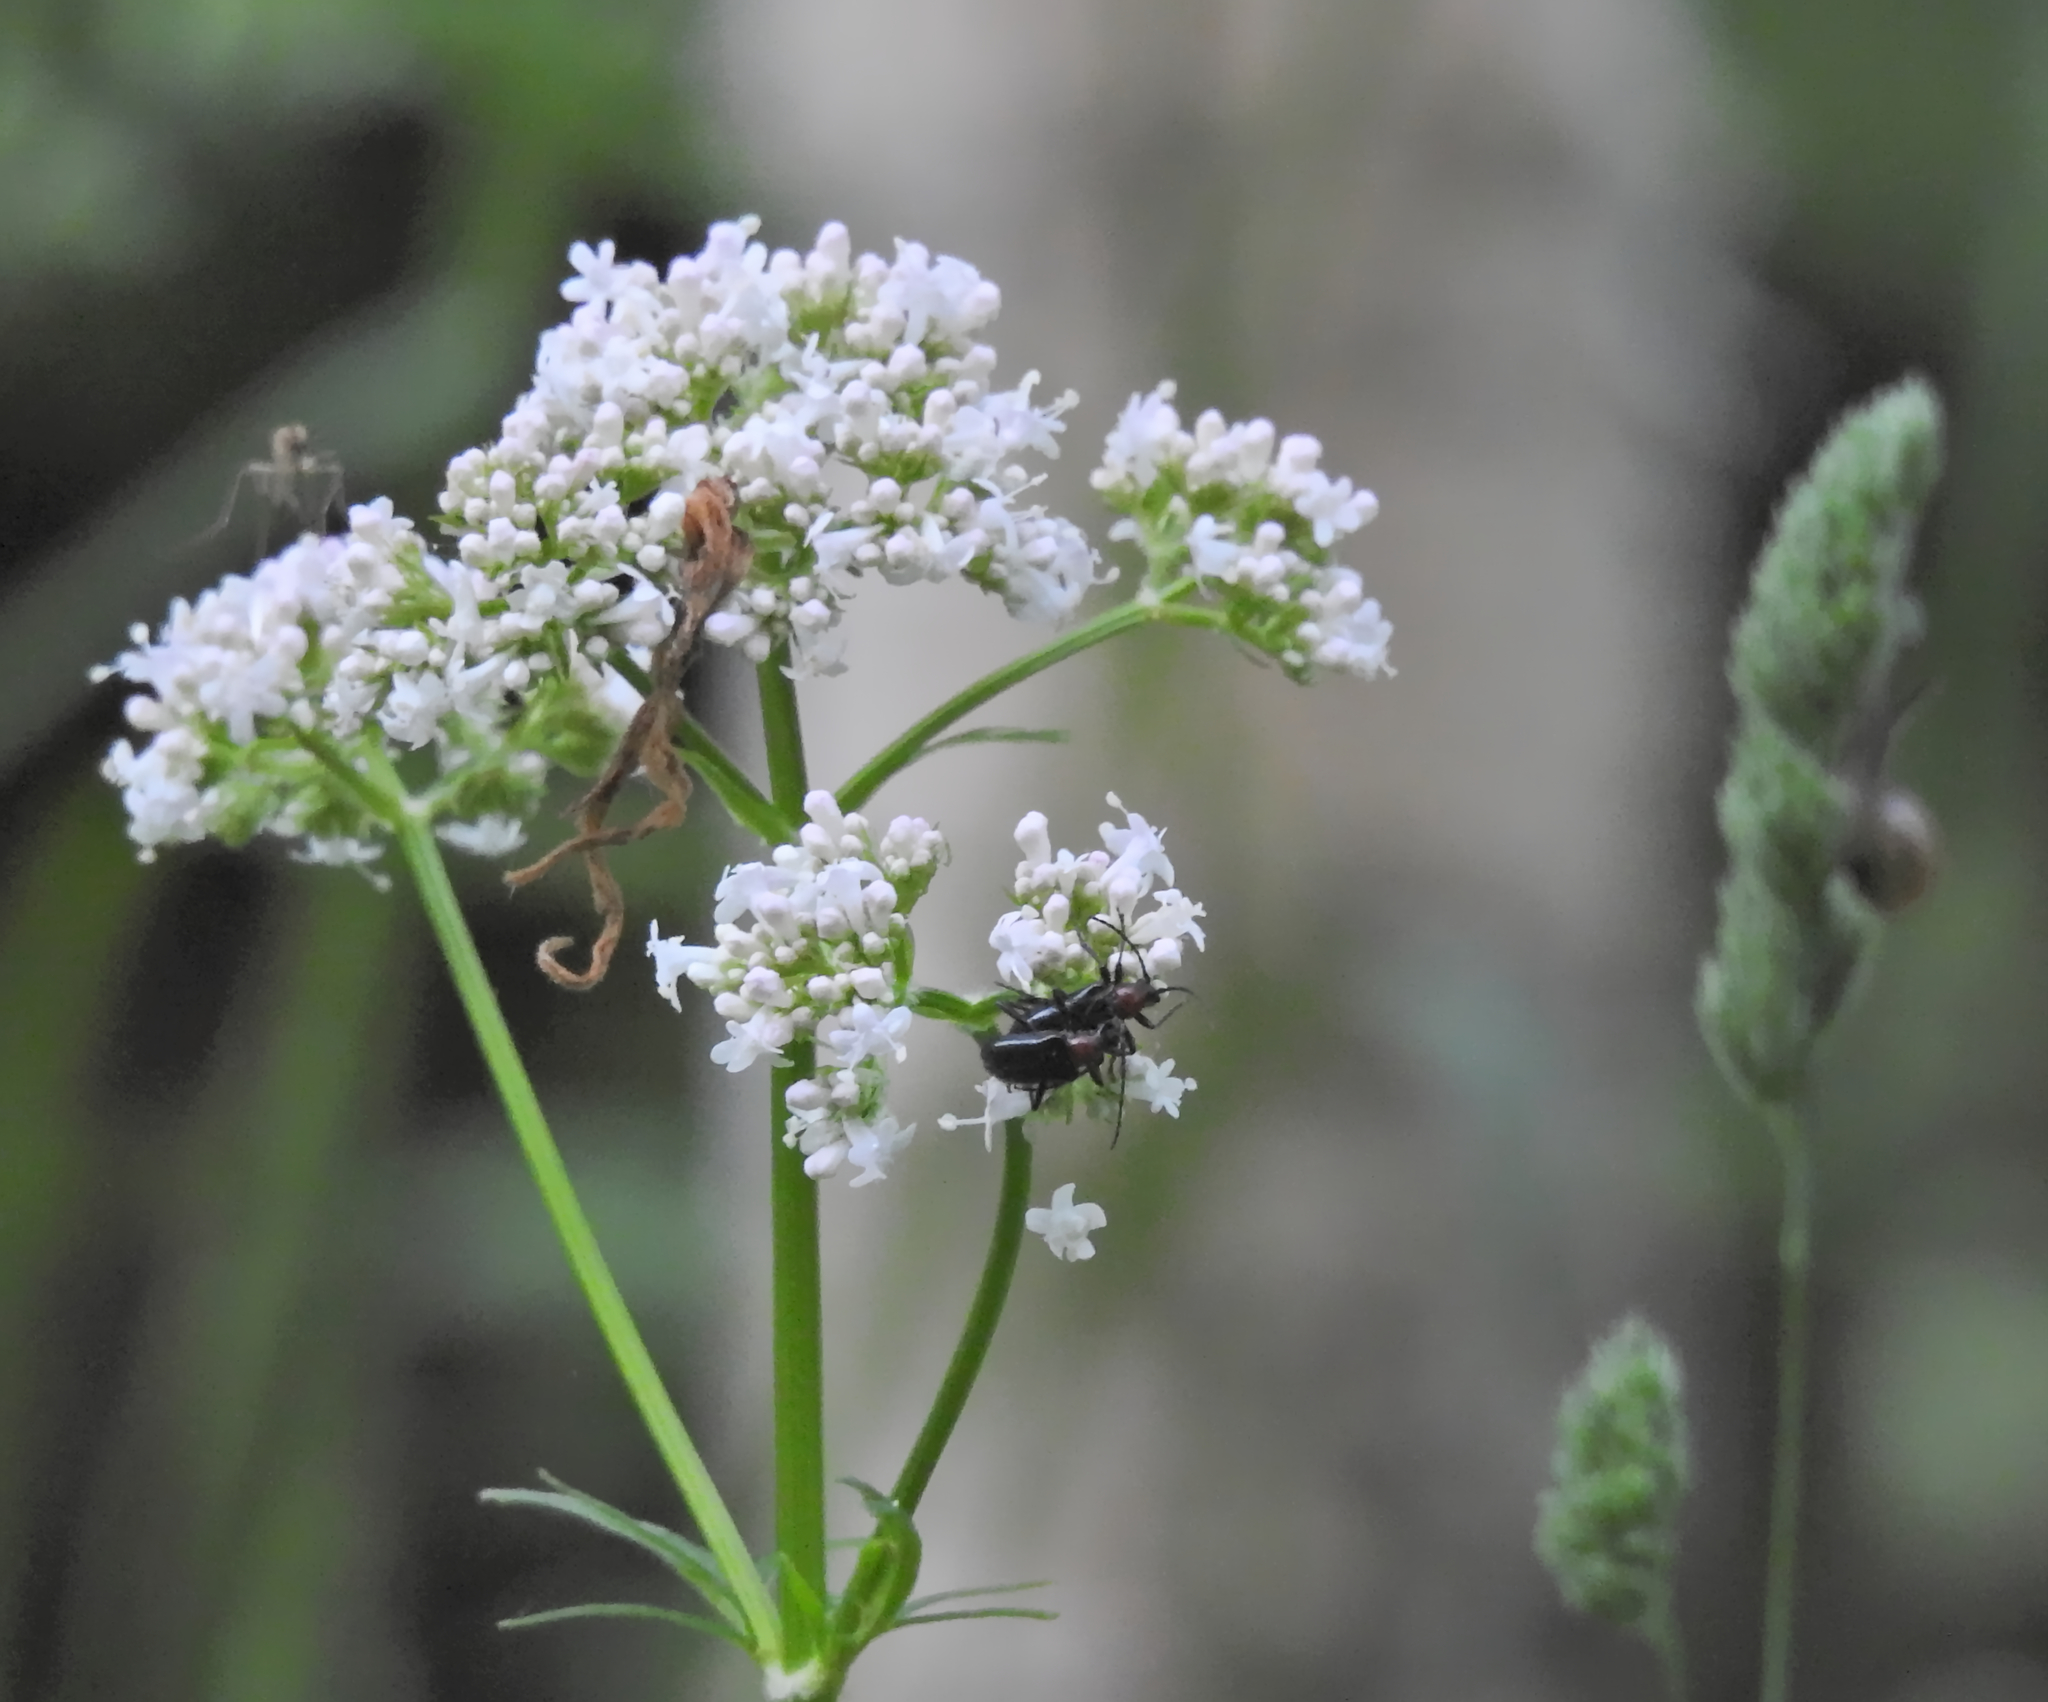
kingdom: Animalia
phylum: Arthropoda
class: Insecta
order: Coleoptera
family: Cerambycidae
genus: Dinoptera
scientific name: Dinoptera collaris
